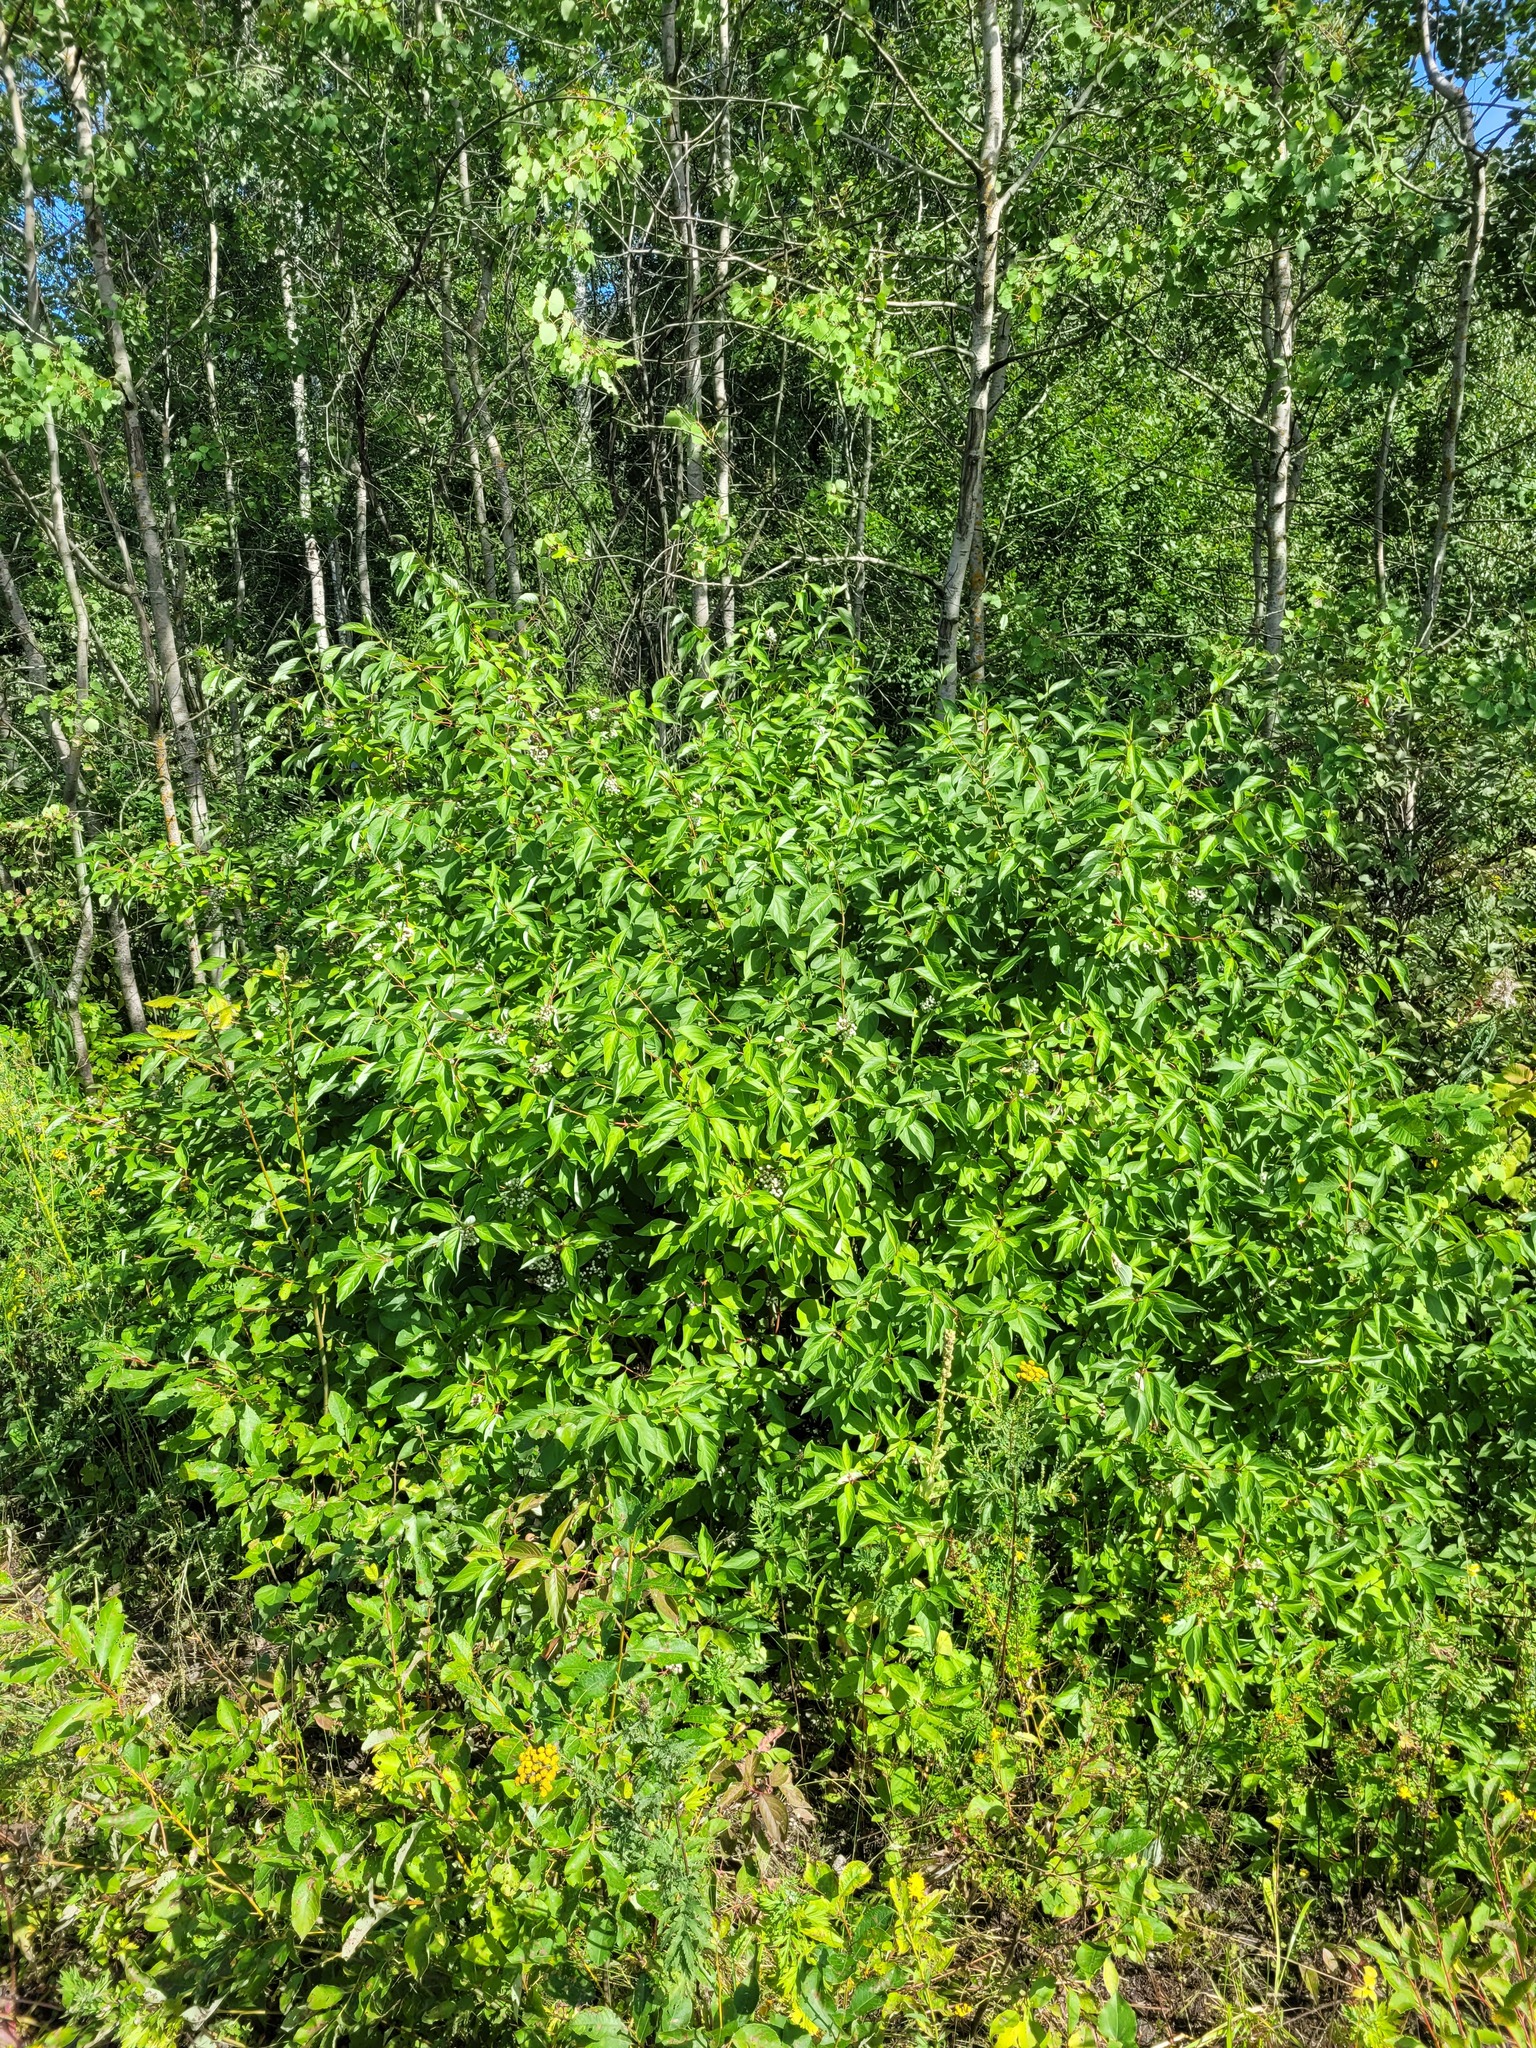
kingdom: Plantae
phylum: Tracheophyta
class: Magnoliopsida
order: Cornales
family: Cornaceae
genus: Cornus
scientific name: Cornus alba
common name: White dogwood
